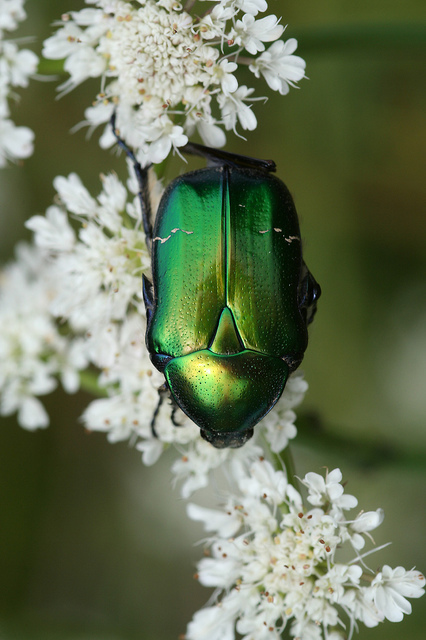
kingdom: Animalia
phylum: Arthropoda
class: Insecta
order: Coleoptera
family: Scarabaeidae
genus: Cetonia
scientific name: Cetonia aurata
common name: Rose chafer
